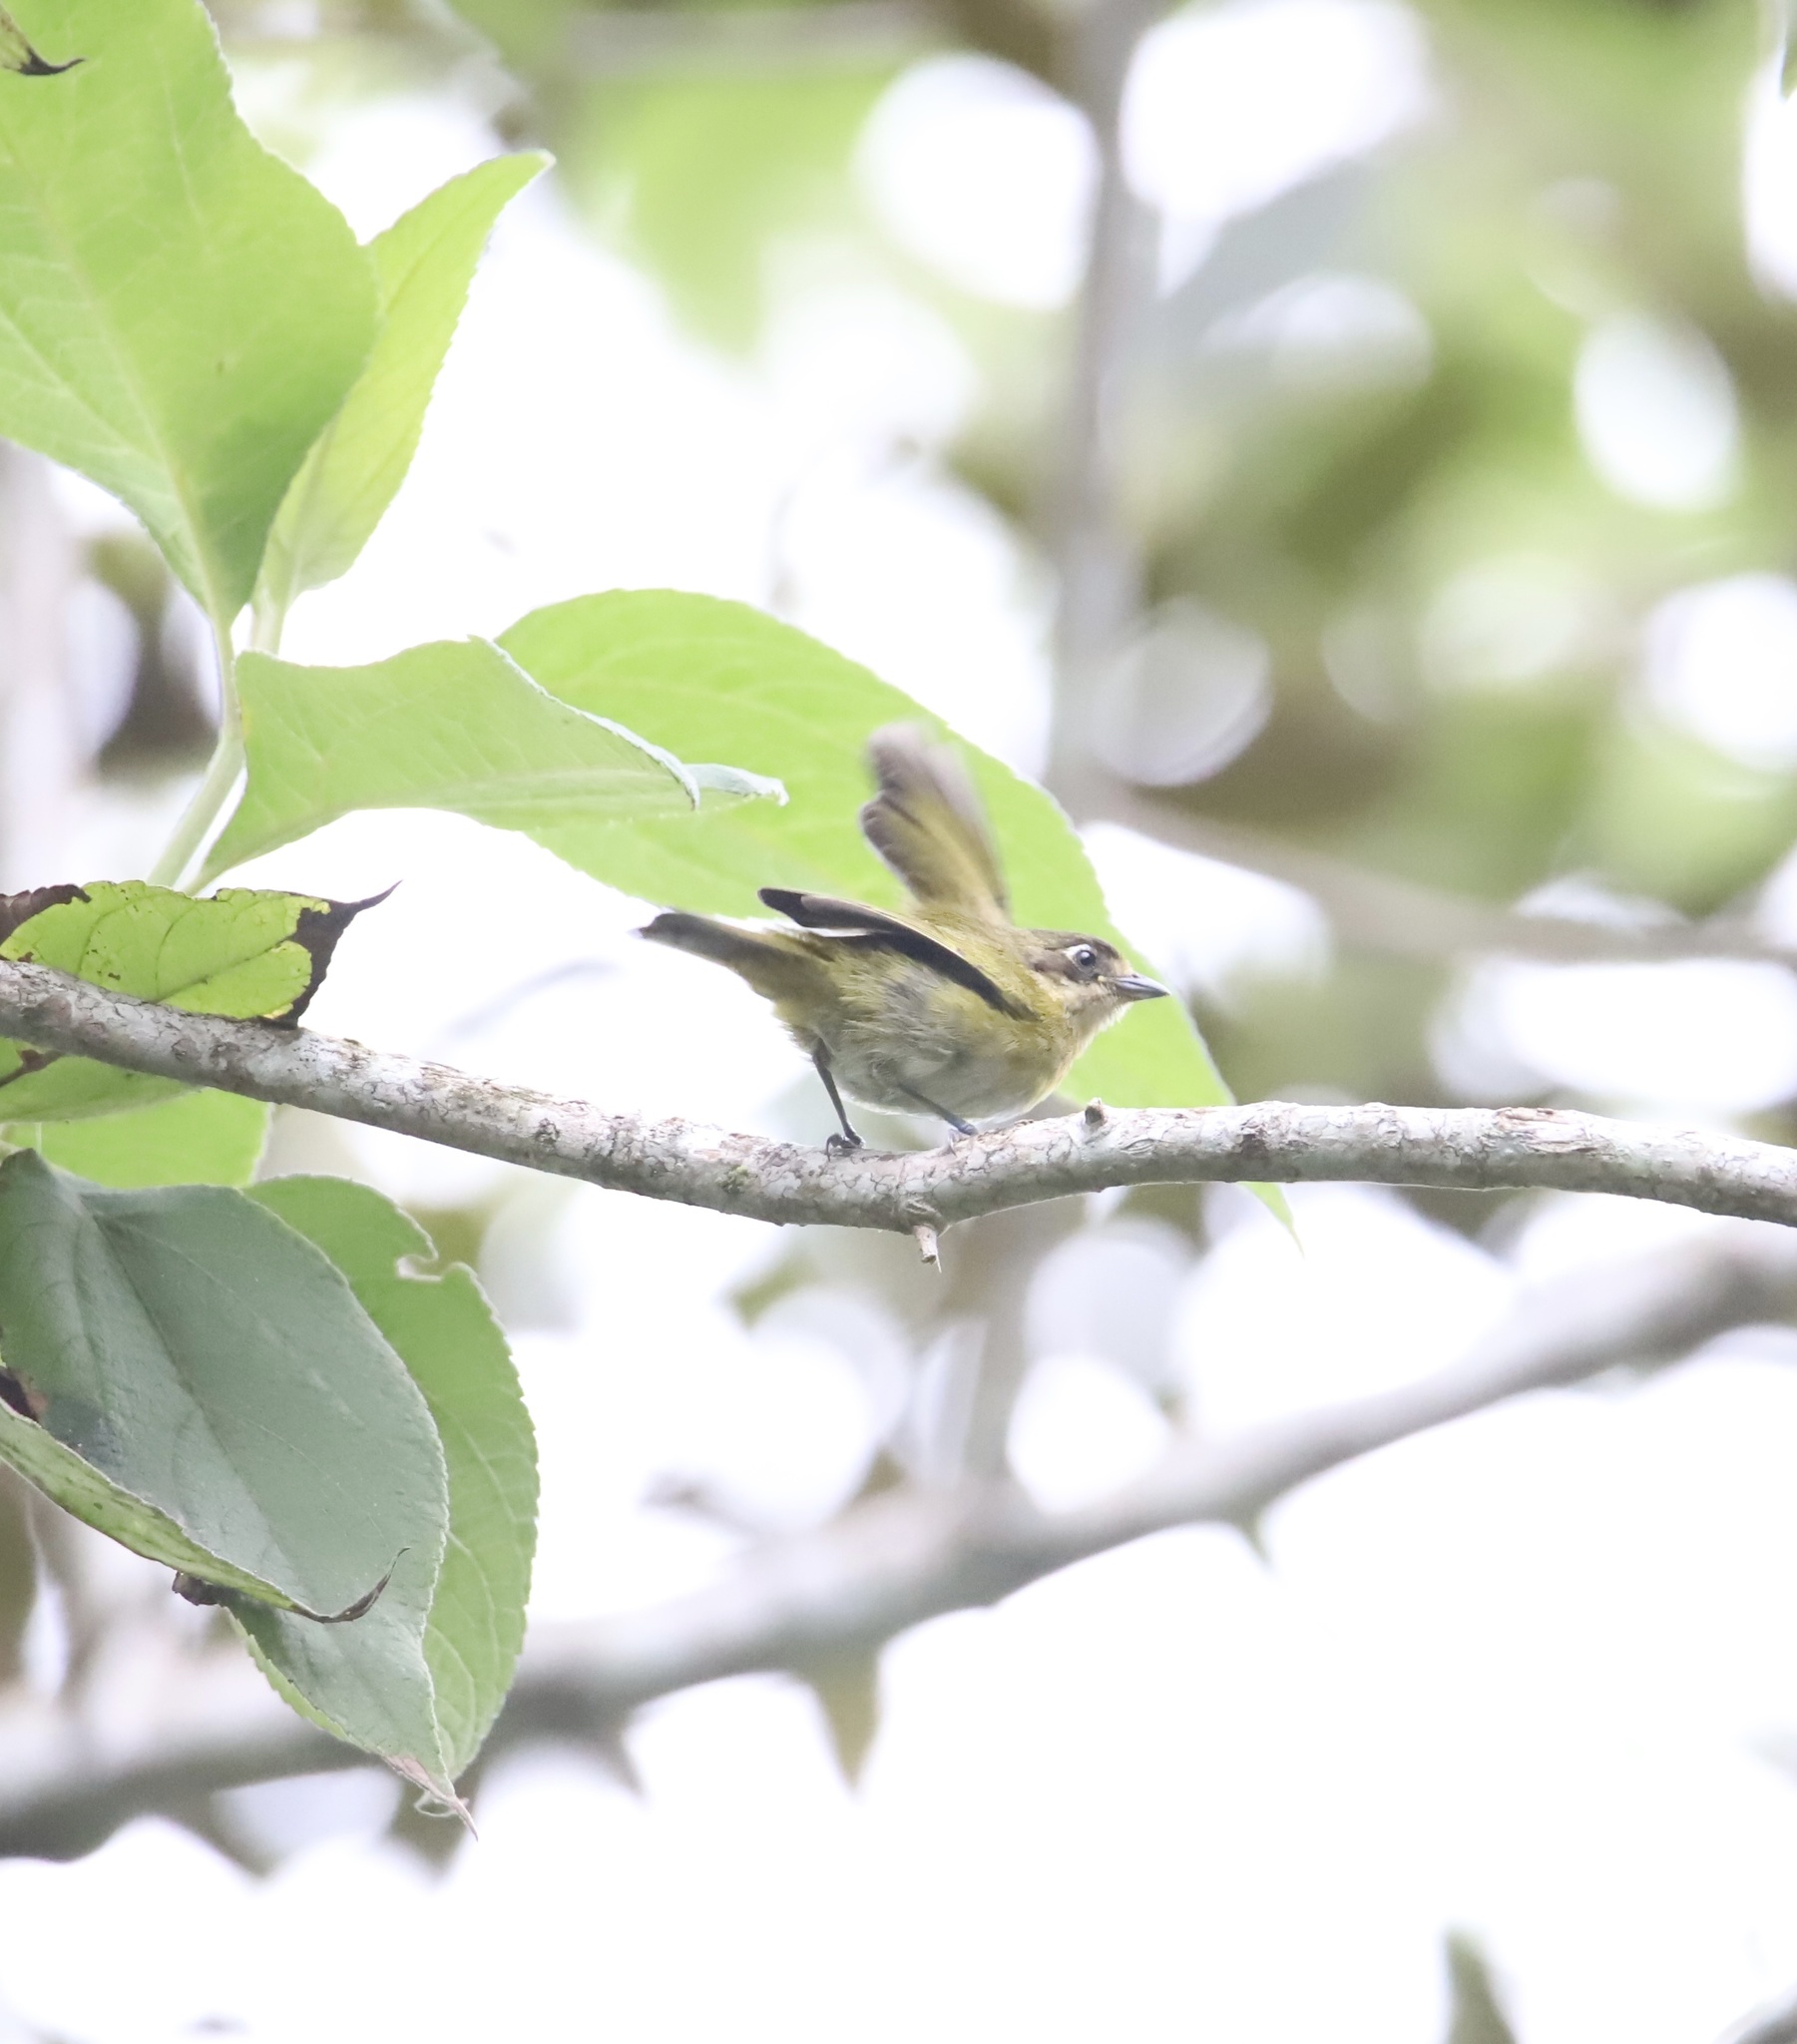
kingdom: Animalia
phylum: Chordata
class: Aves
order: Passeriformes
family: Passerellidae
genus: Chlorospingus
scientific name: Chlorospingus flavopectus
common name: Common chlorospingus
